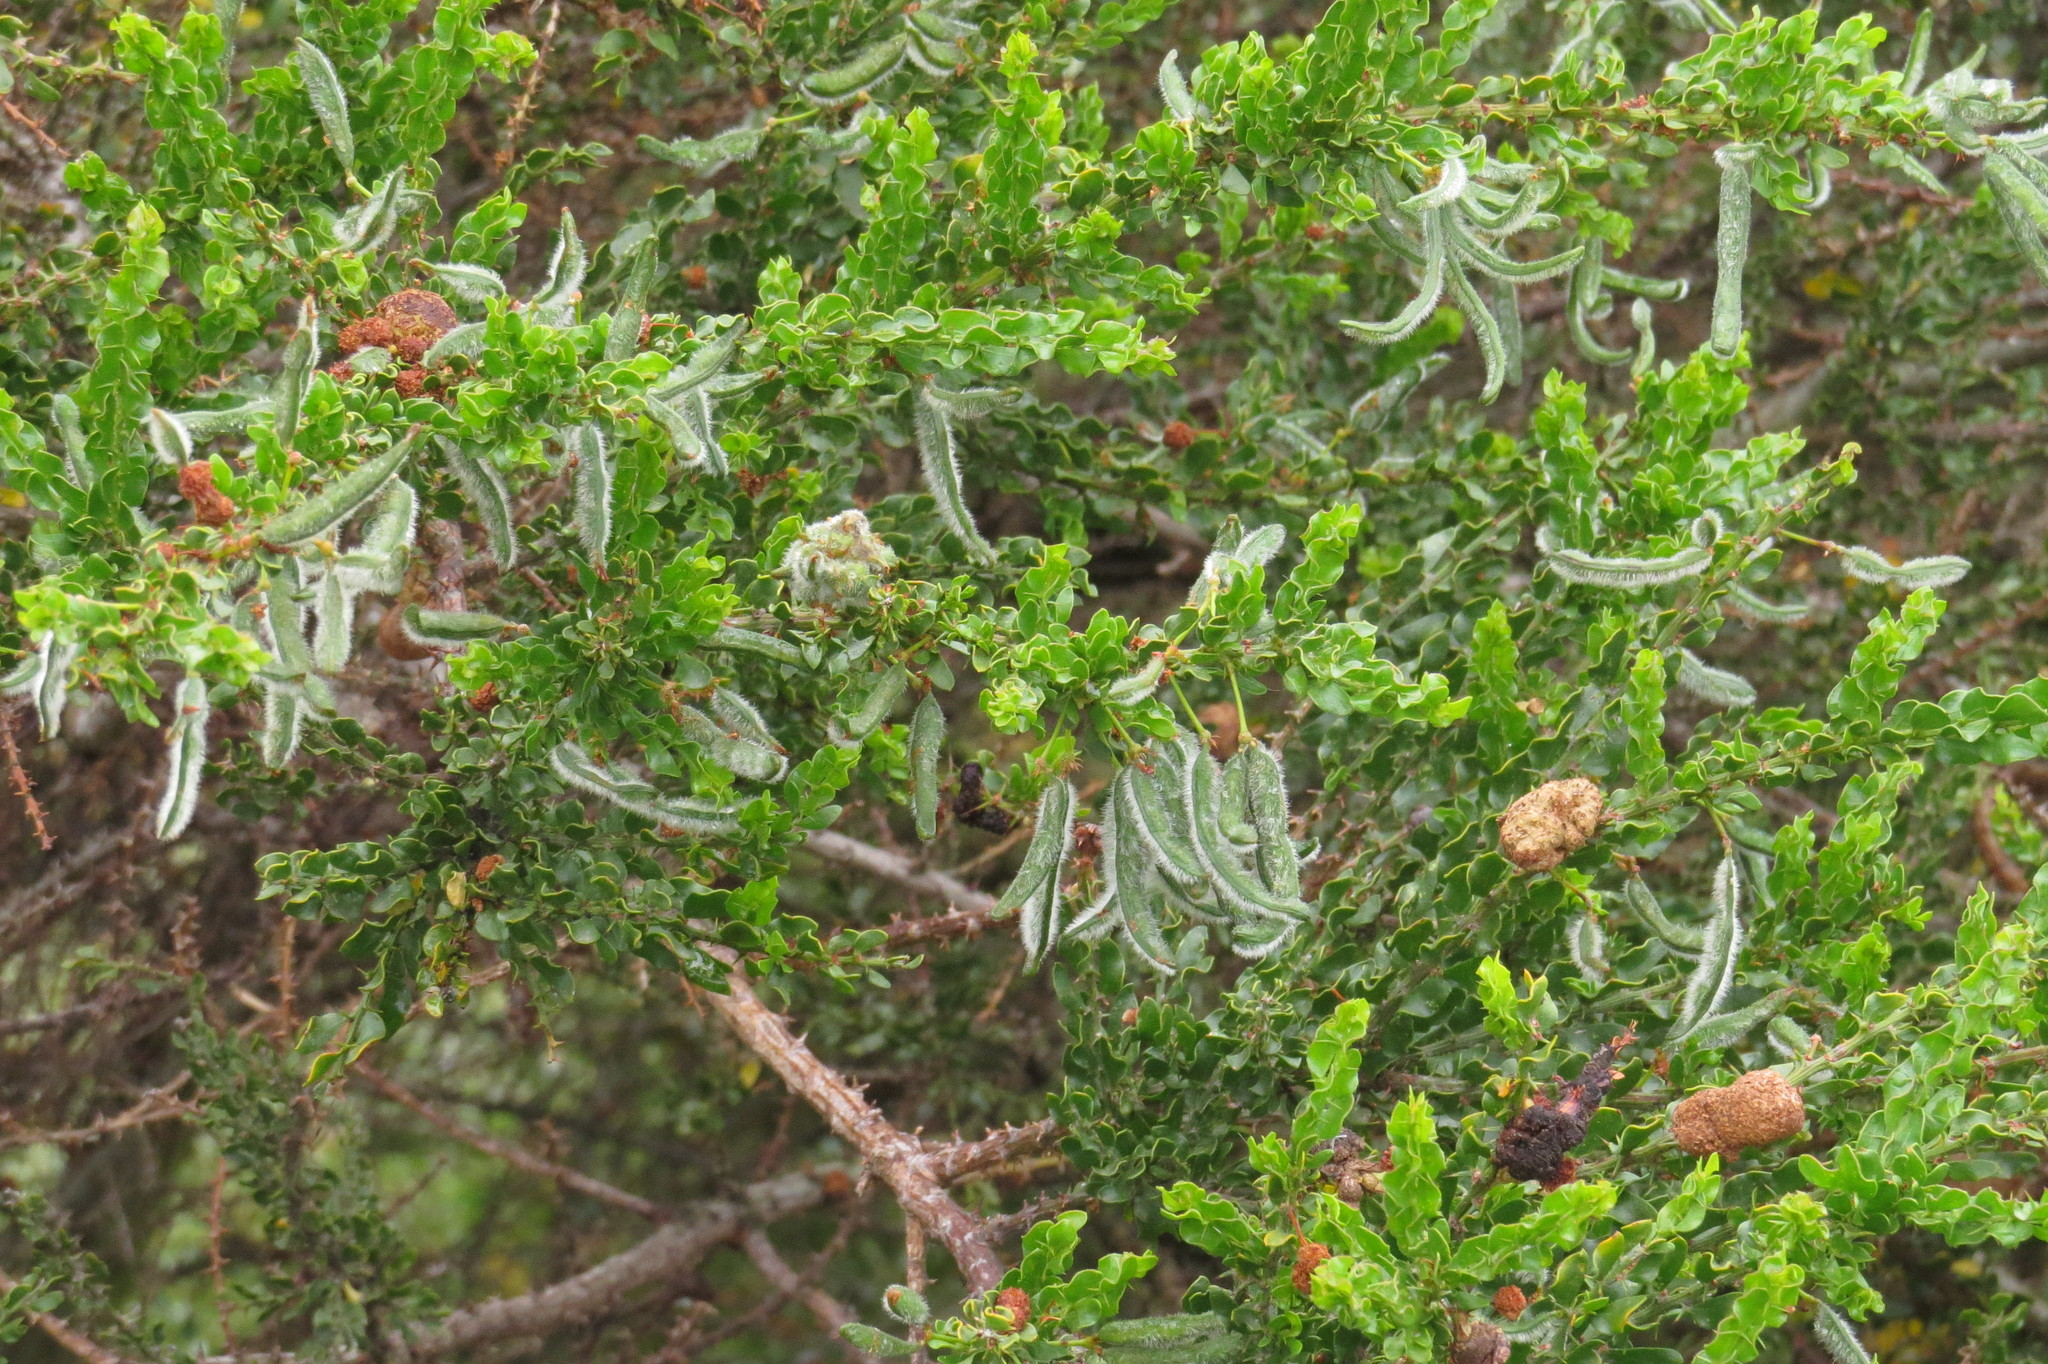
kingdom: Plantae
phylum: Tracheophyta
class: Magnoliopsida
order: Fabales
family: Fabaceae
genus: Acacia
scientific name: Acacia paradoxa
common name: Paradox acacia
